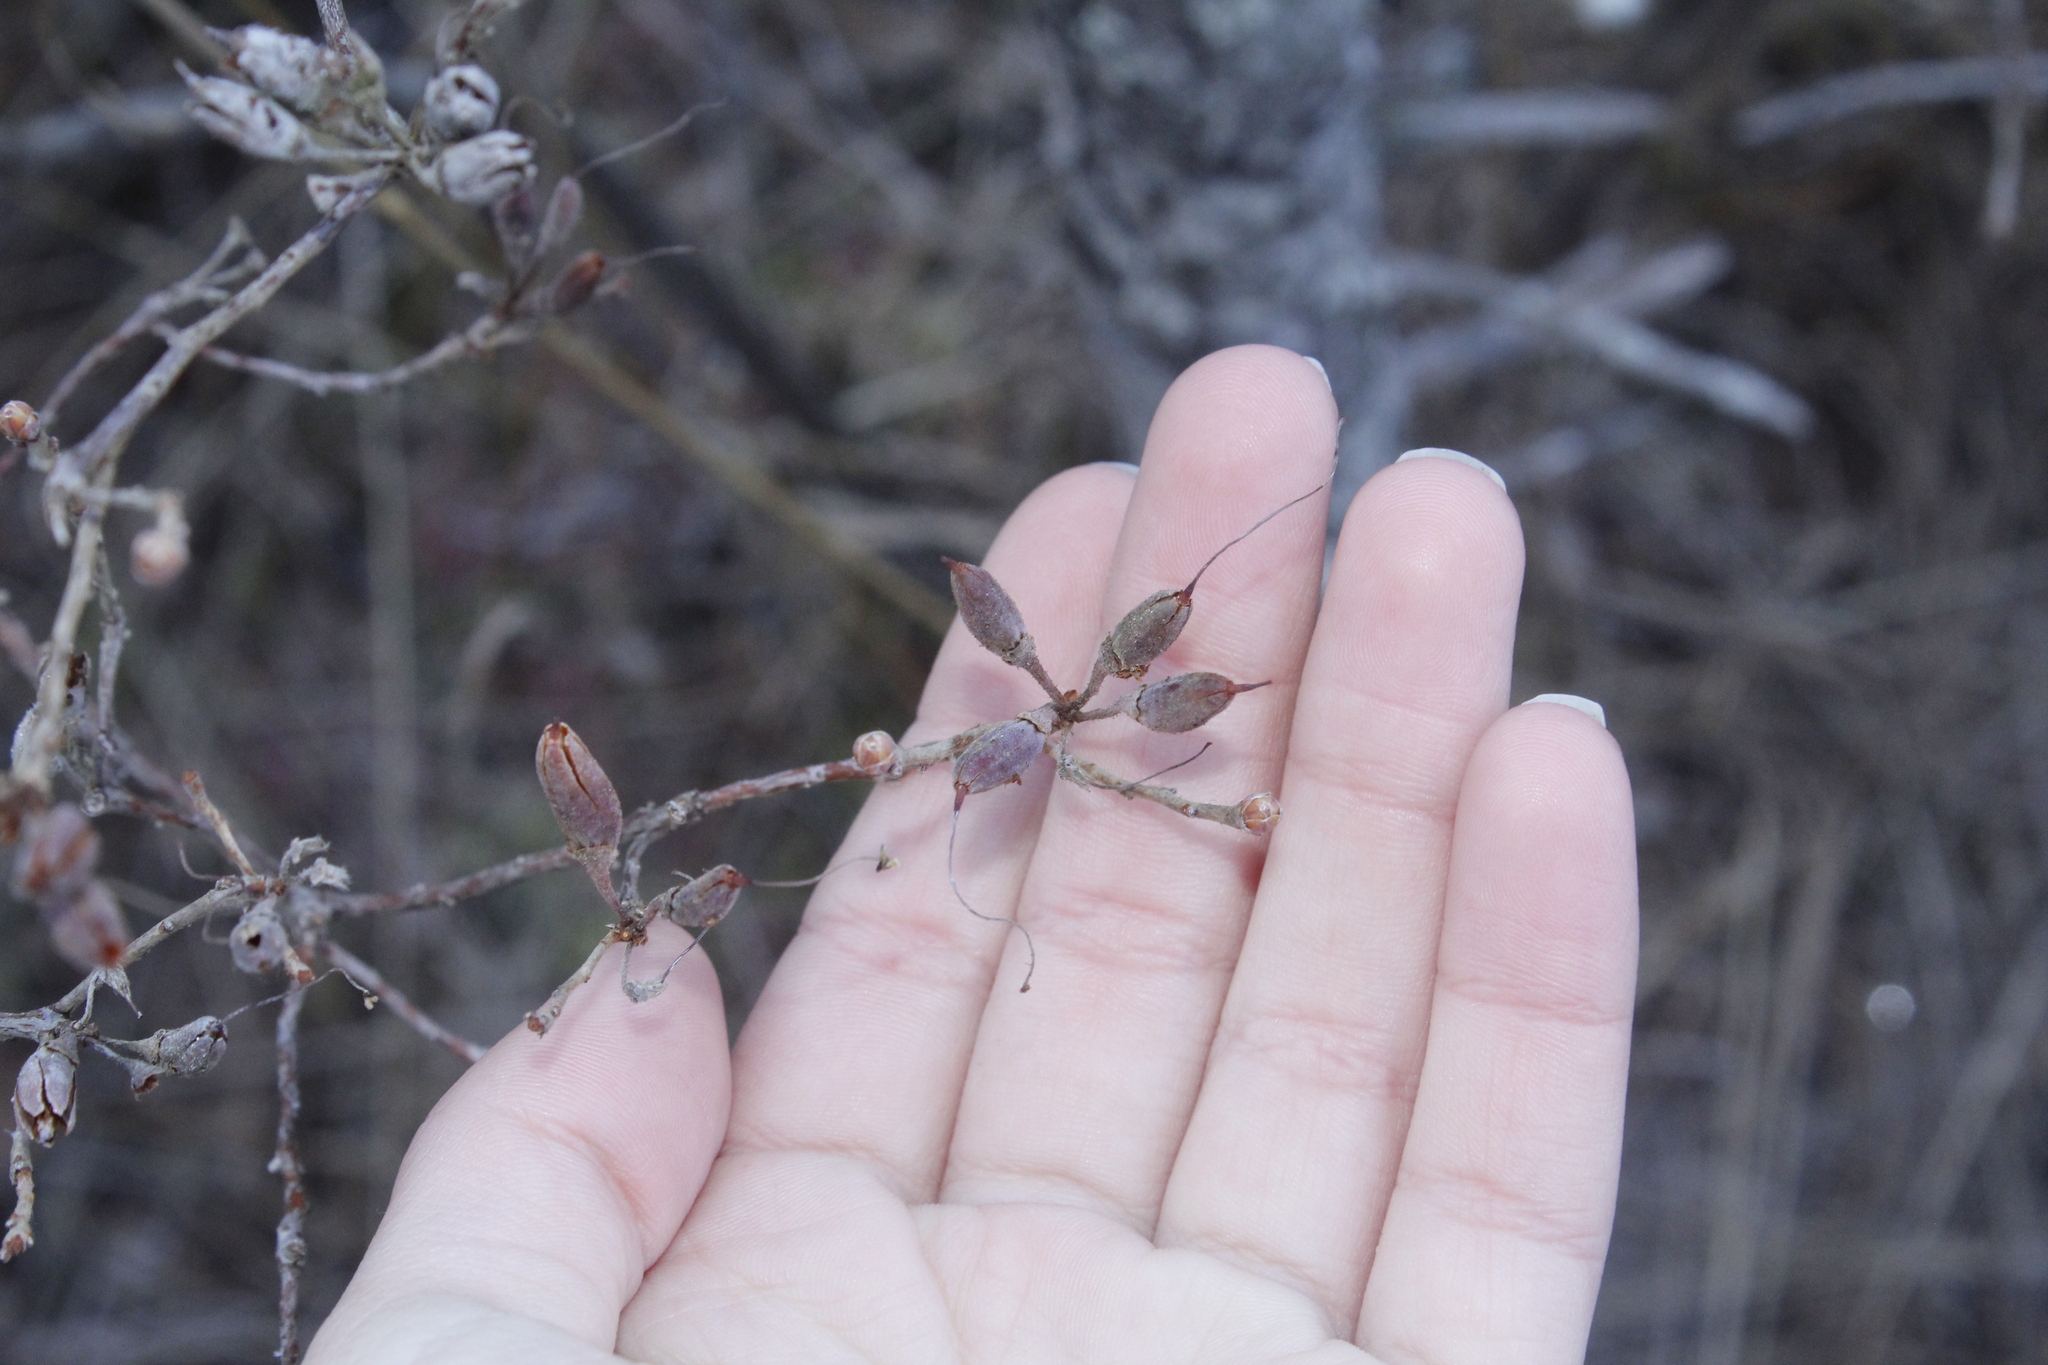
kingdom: Plantae
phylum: Tracheophyta
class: Magnoliopsida
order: Ericales
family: Ericaceae
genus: Rhododendron
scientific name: Rhododendron canadense
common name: Rhodora
